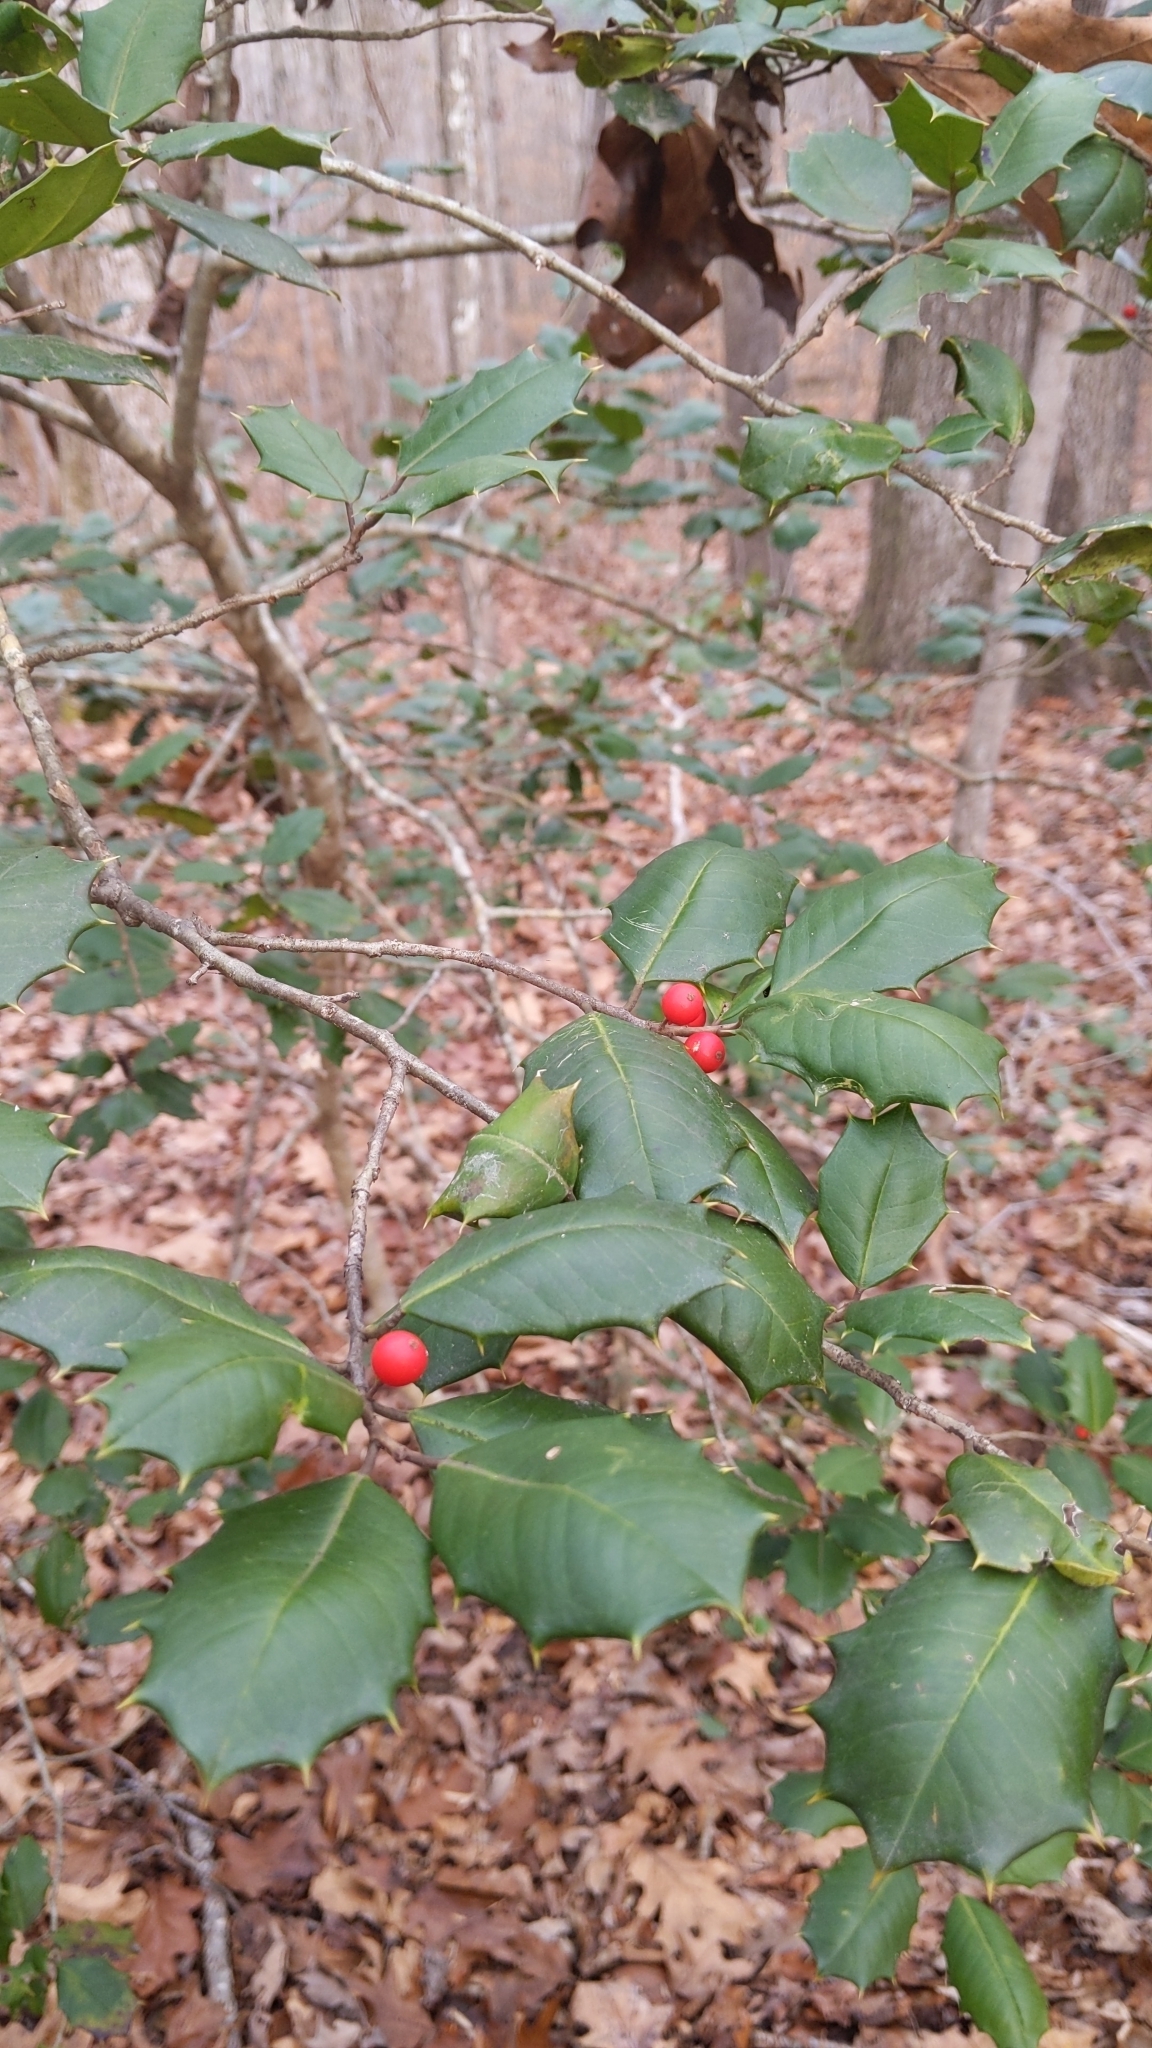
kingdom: Plantae
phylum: Tracheophyta
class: Magnoliopsida
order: Aquifoliales
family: Aquifoliaceae
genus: Ilex
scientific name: Ilex opaca
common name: American holly
